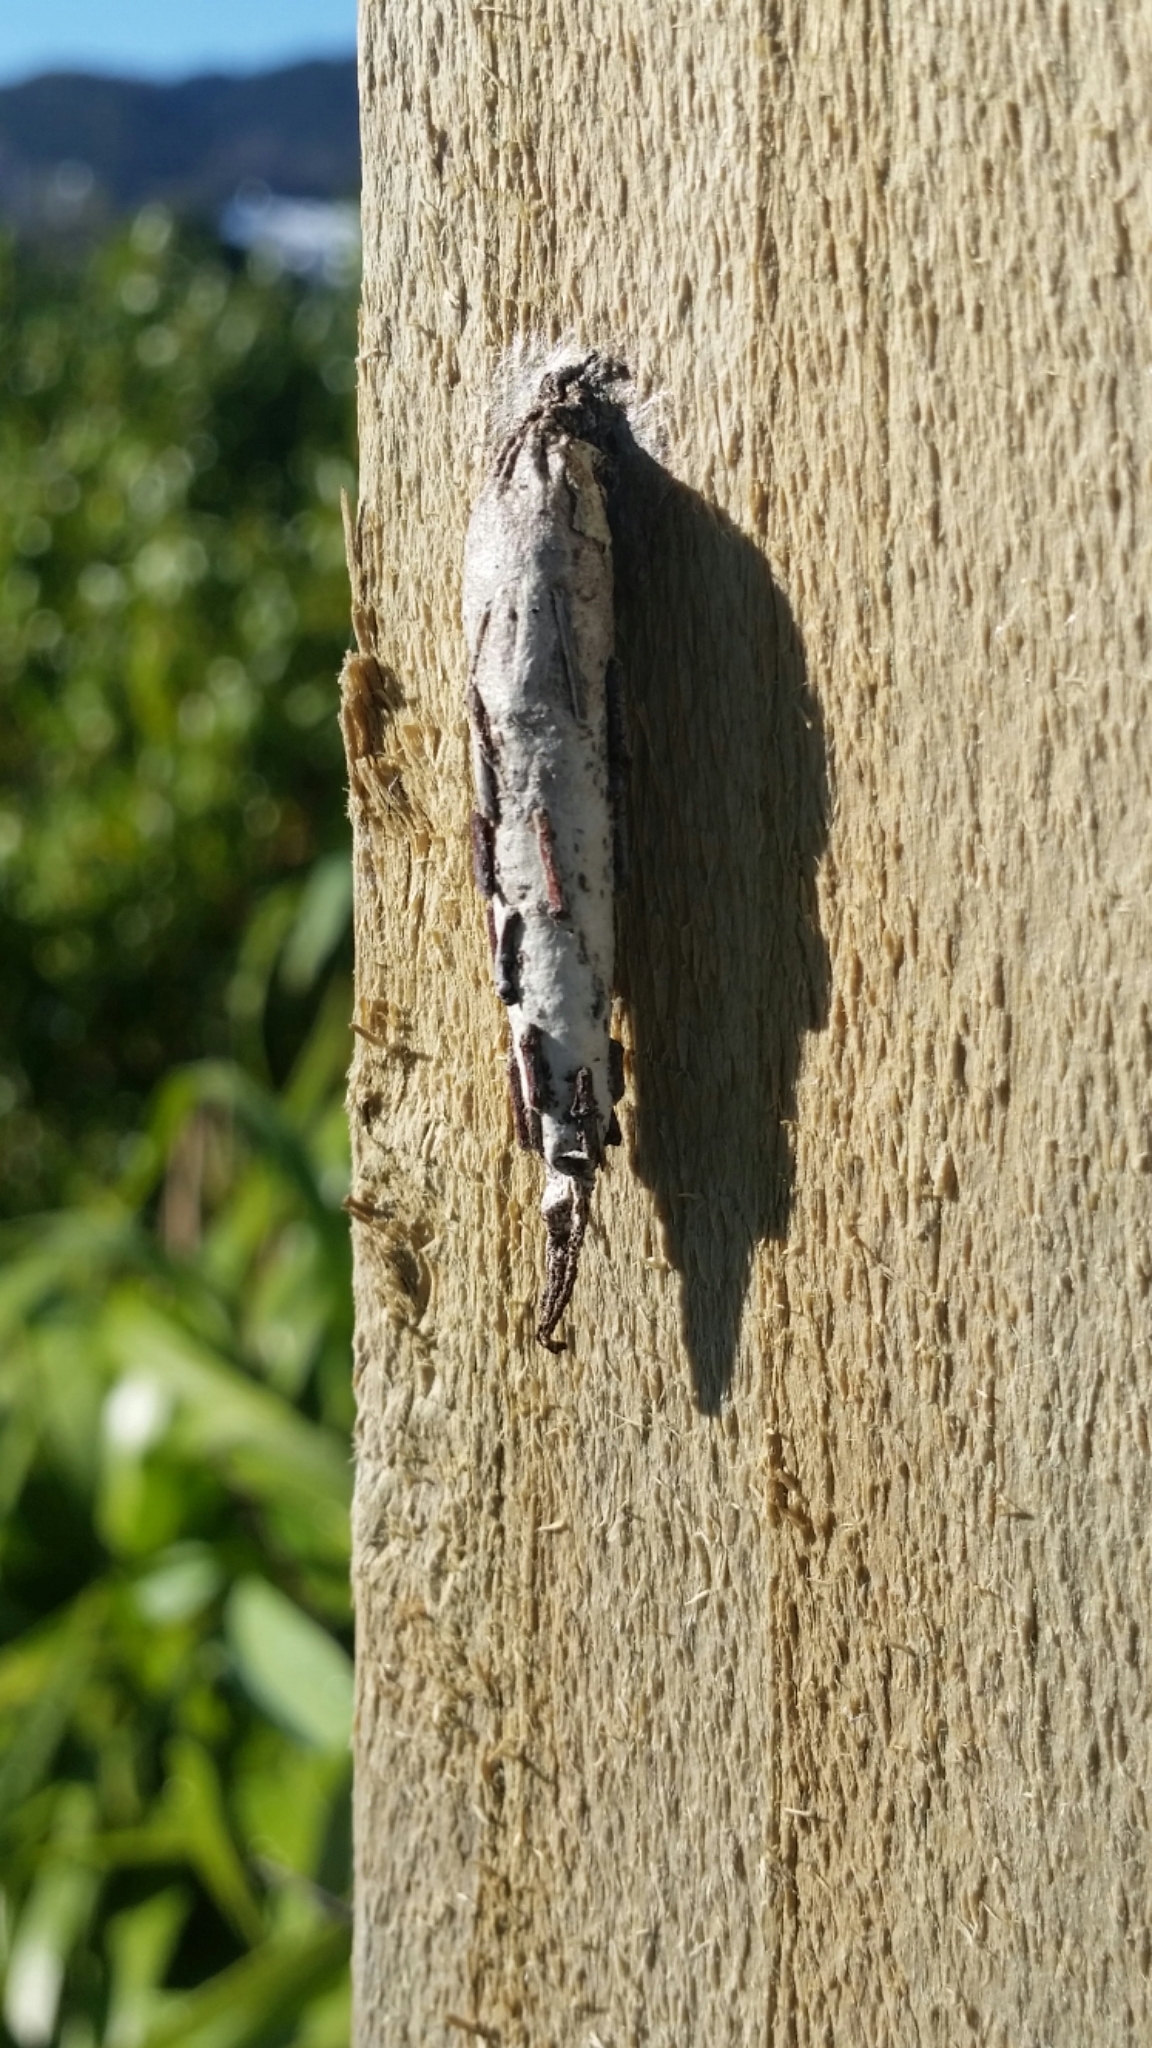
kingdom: Animalia
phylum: Arthropoda
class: Insecta
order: Lepidoptera
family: Psychidae
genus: Liothula
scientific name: Liothula omnivora
